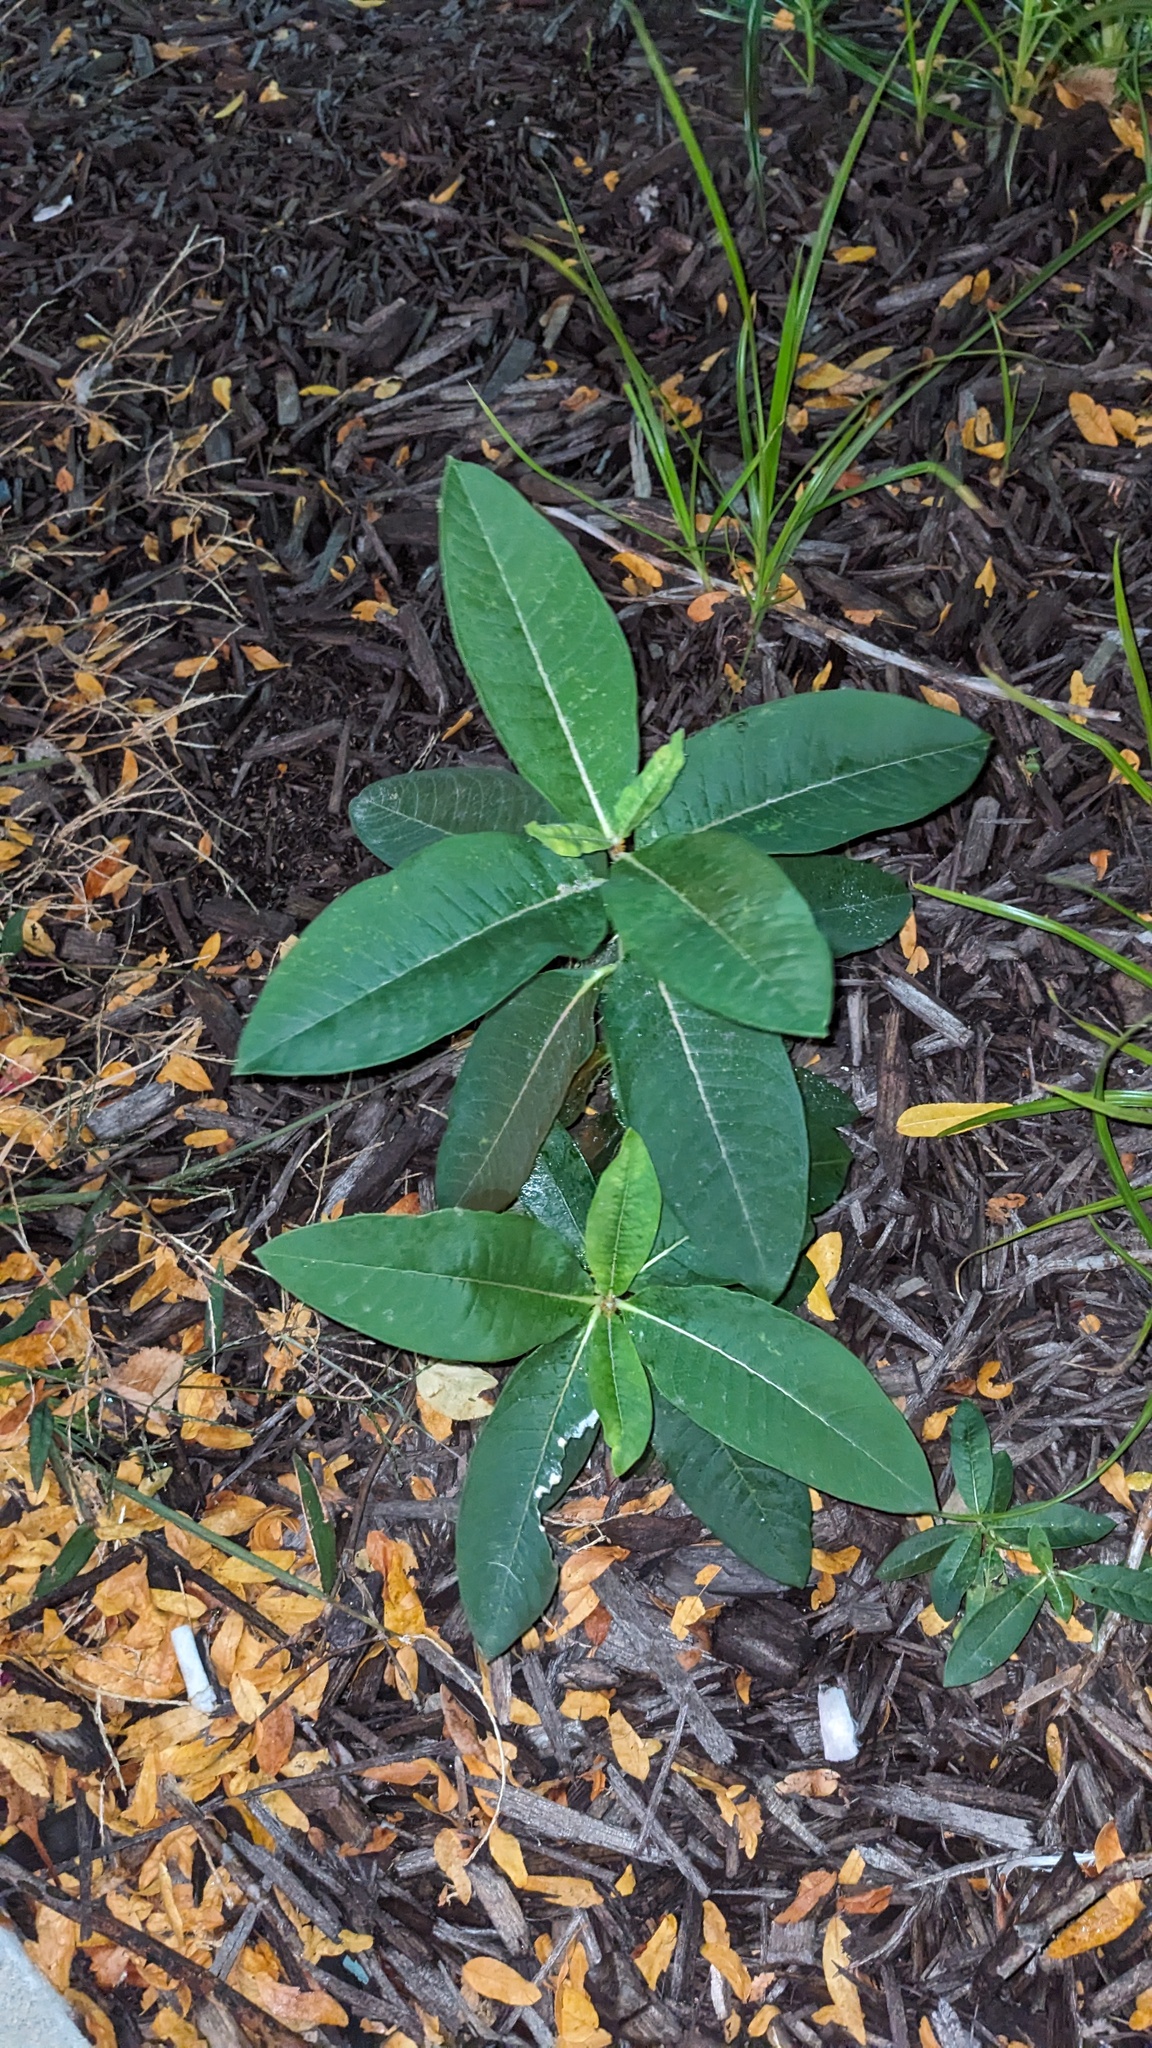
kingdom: Plantae
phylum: Tracheophyta
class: Magnoliopsida
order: Gentianales
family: Apocynaceae
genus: Asclepias
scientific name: Asclepias syriaca
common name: Common milkweed
